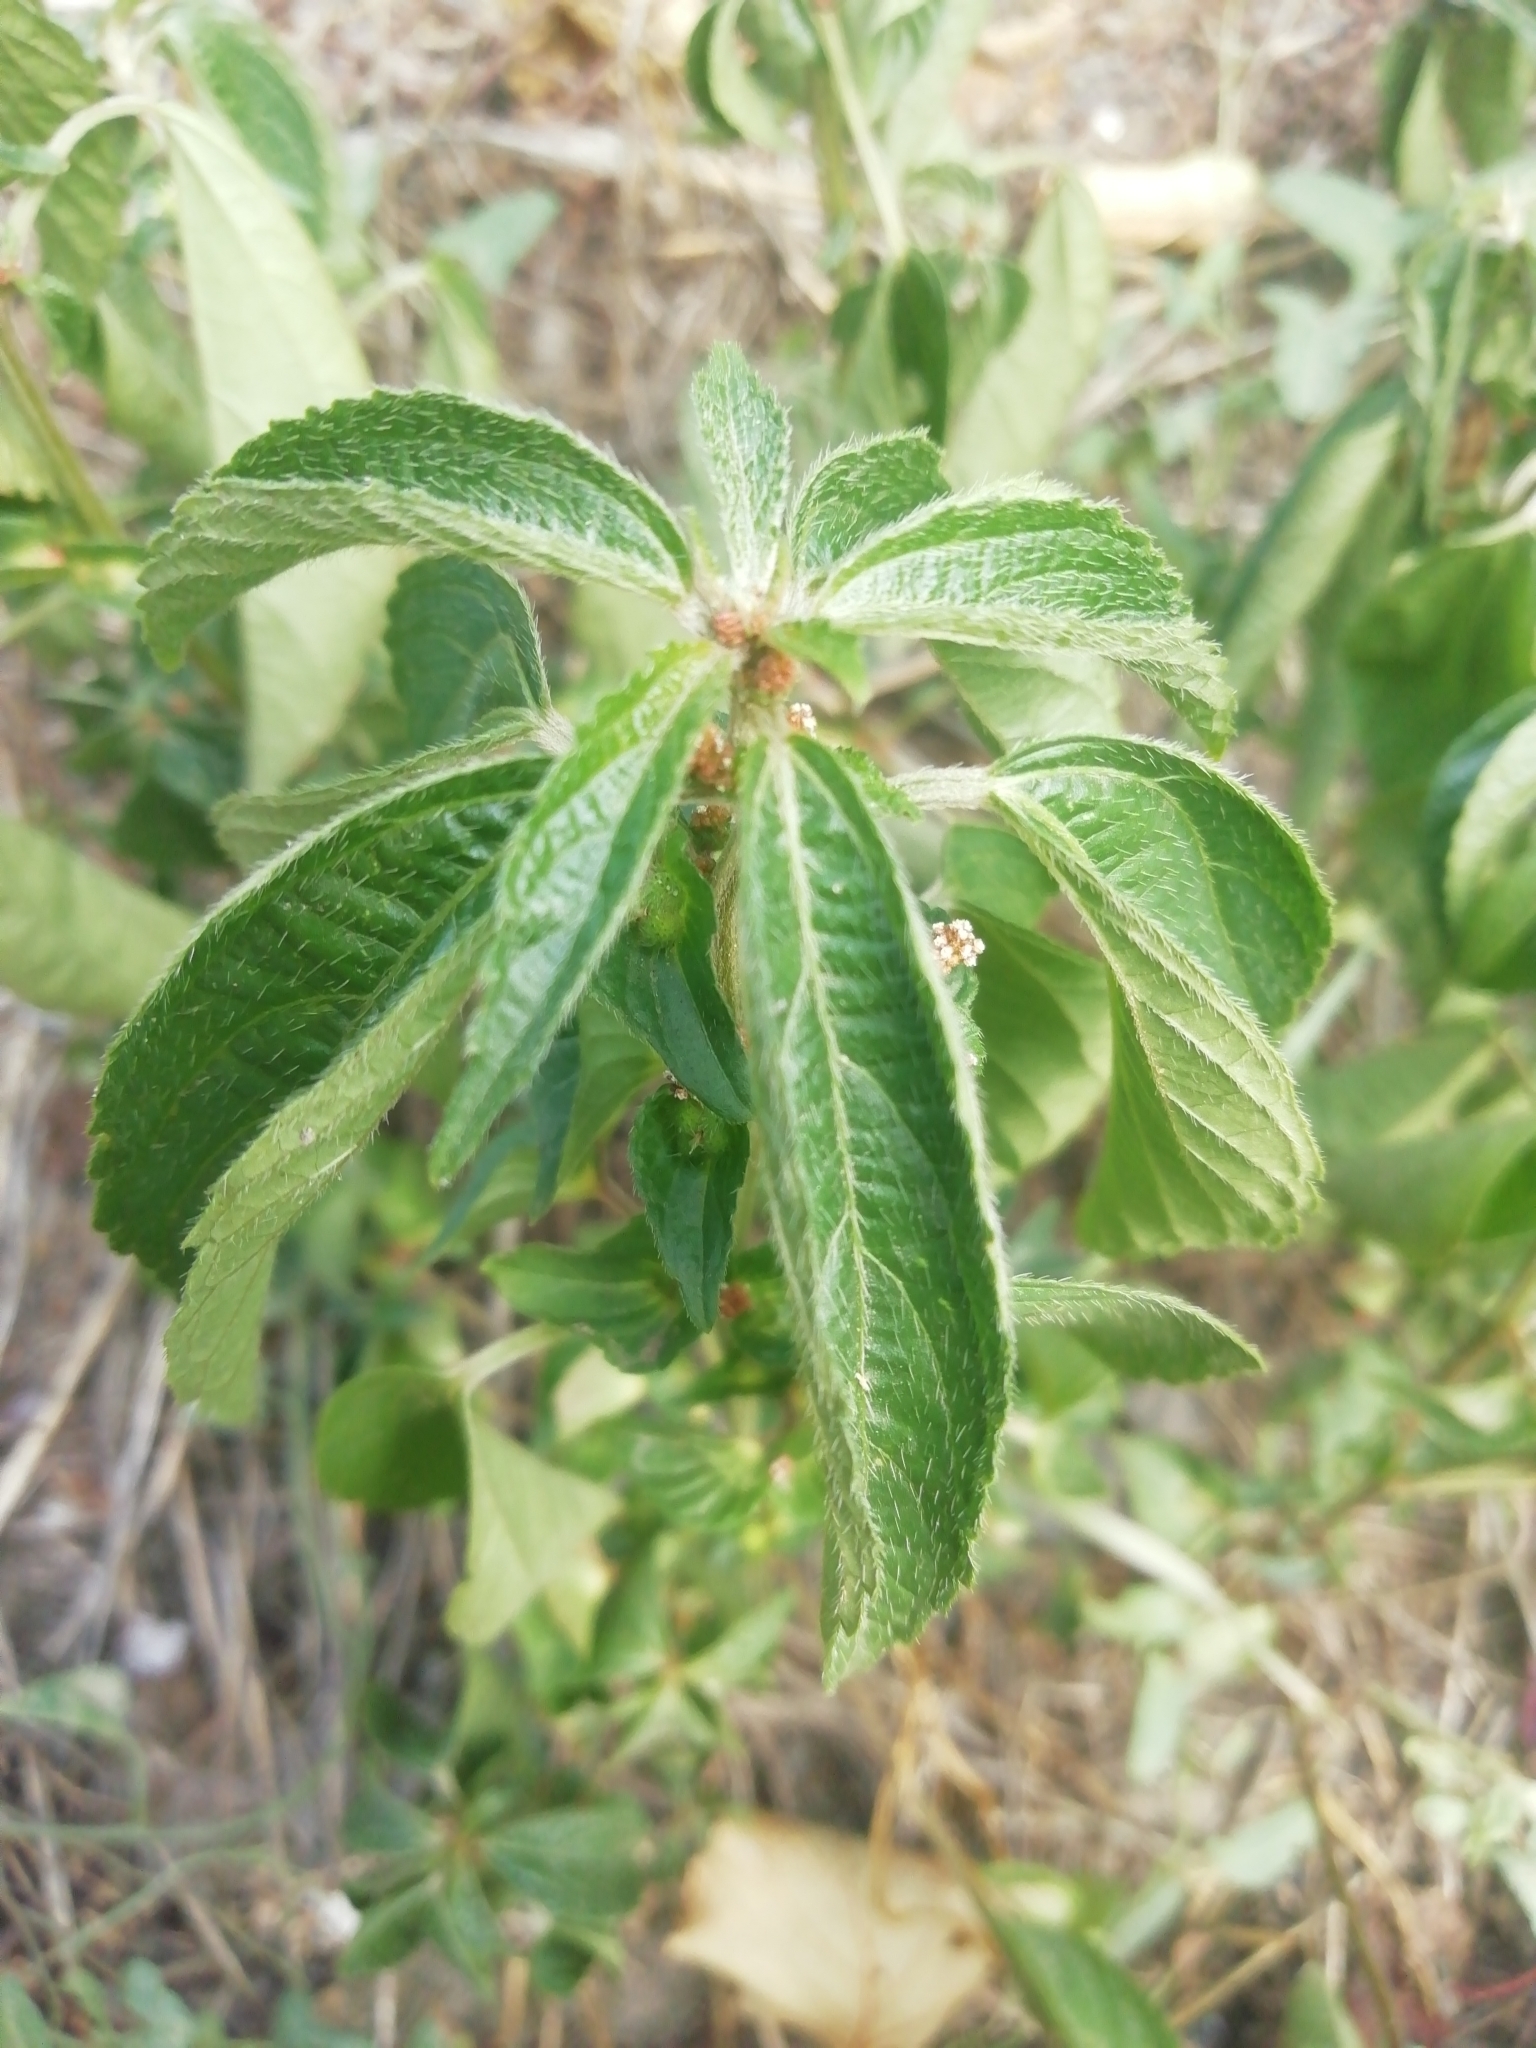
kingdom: Plantae
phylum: Tracheophyta
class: Magnoliopsida
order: Malpighiales
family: Euphorbiaceae
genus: Acalypha
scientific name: Acalypha australis
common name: Asian copperleaf
